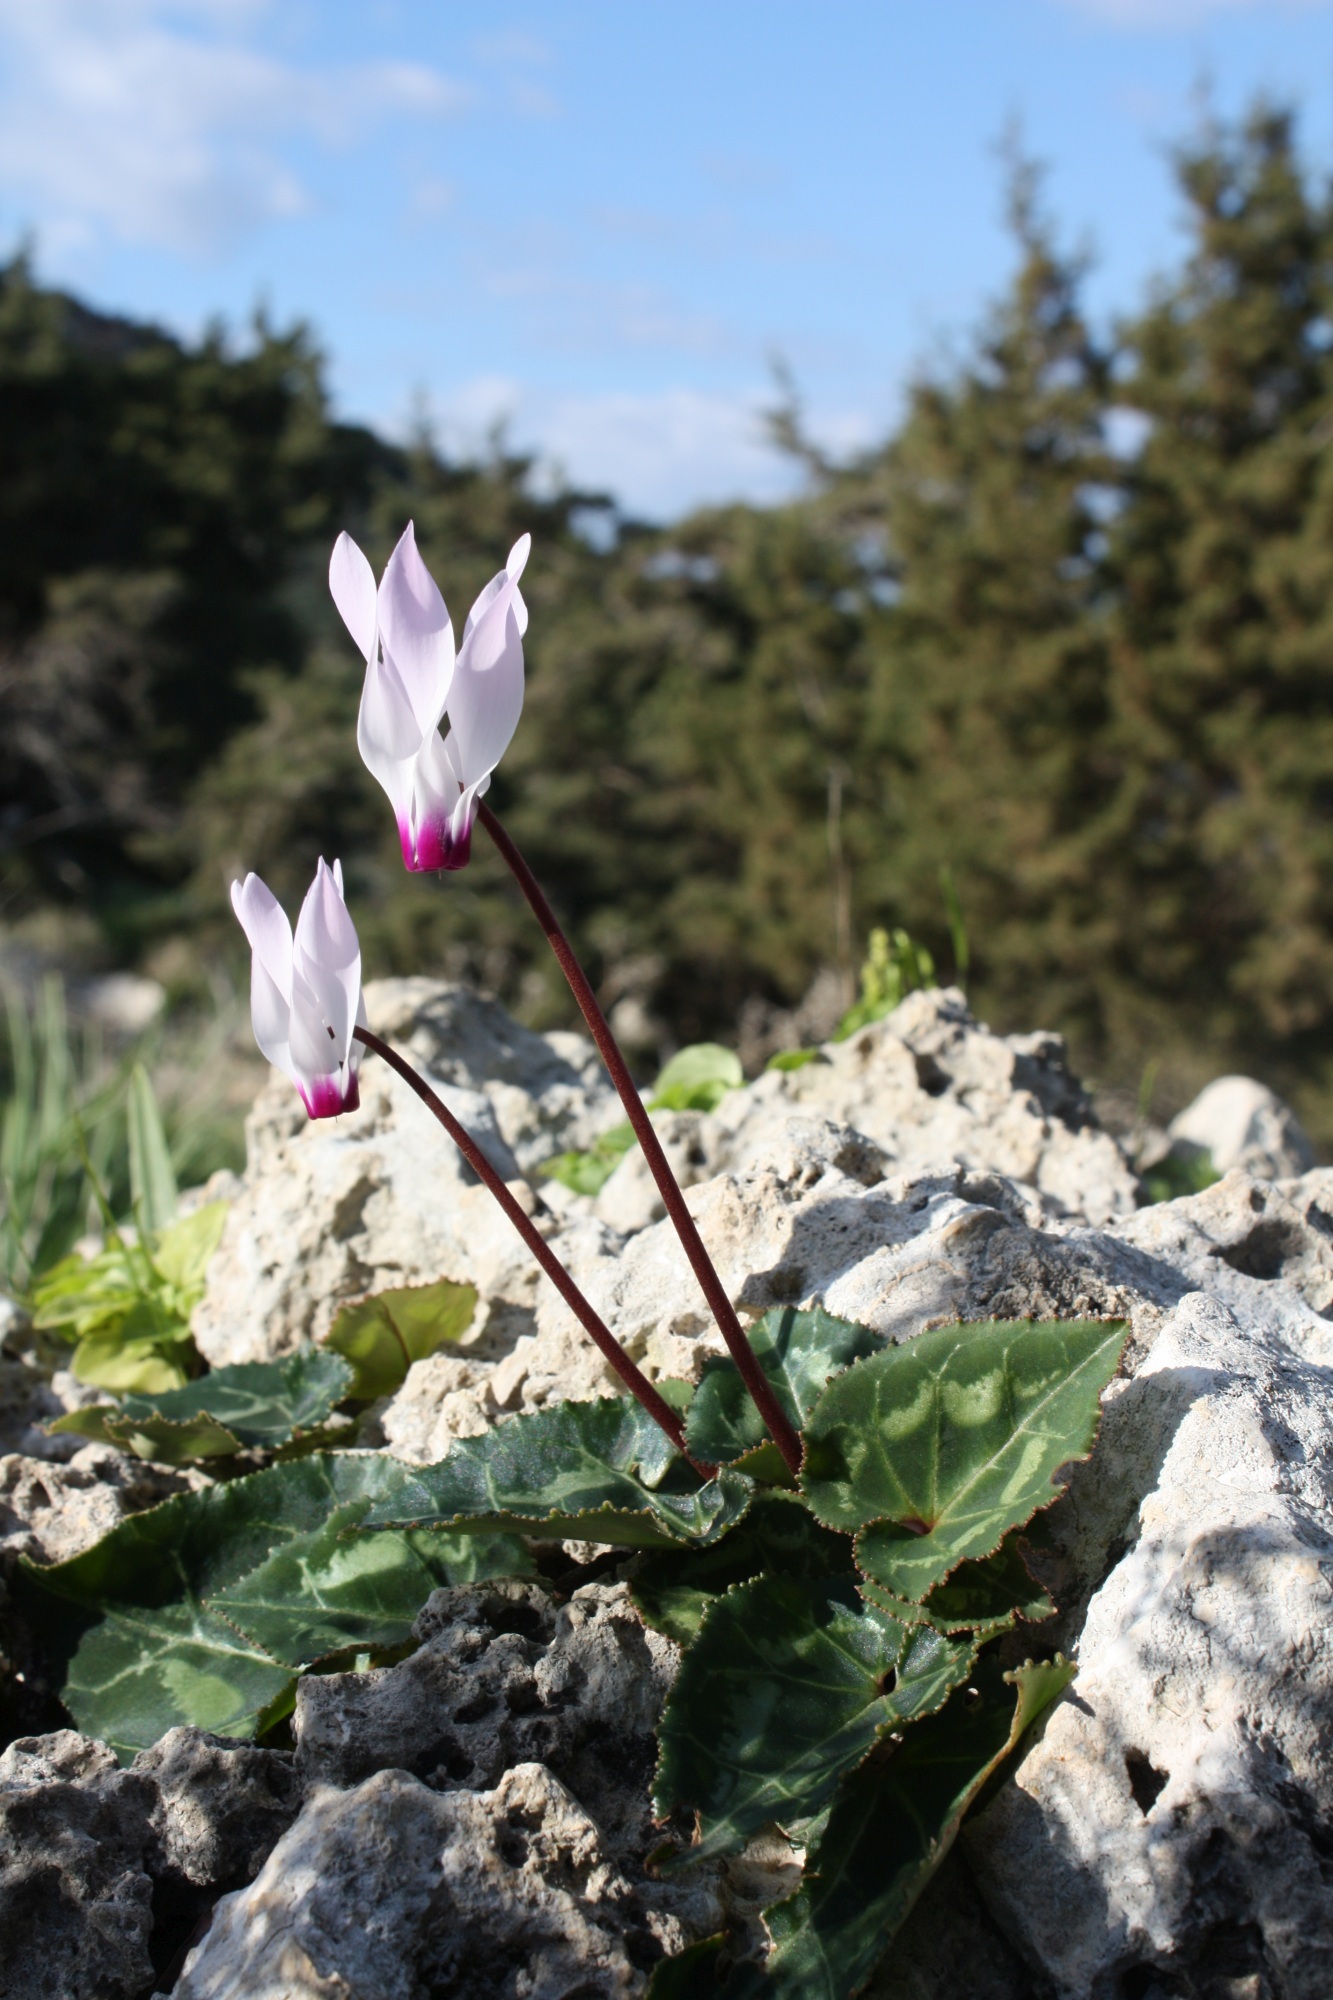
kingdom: Plantae
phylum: Tracheophyta
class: Magnoliopsida
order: Ericales
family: Primulaceae
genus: Cyclamen
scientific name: Cyclamen persicum
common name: Florist's cyclamen
